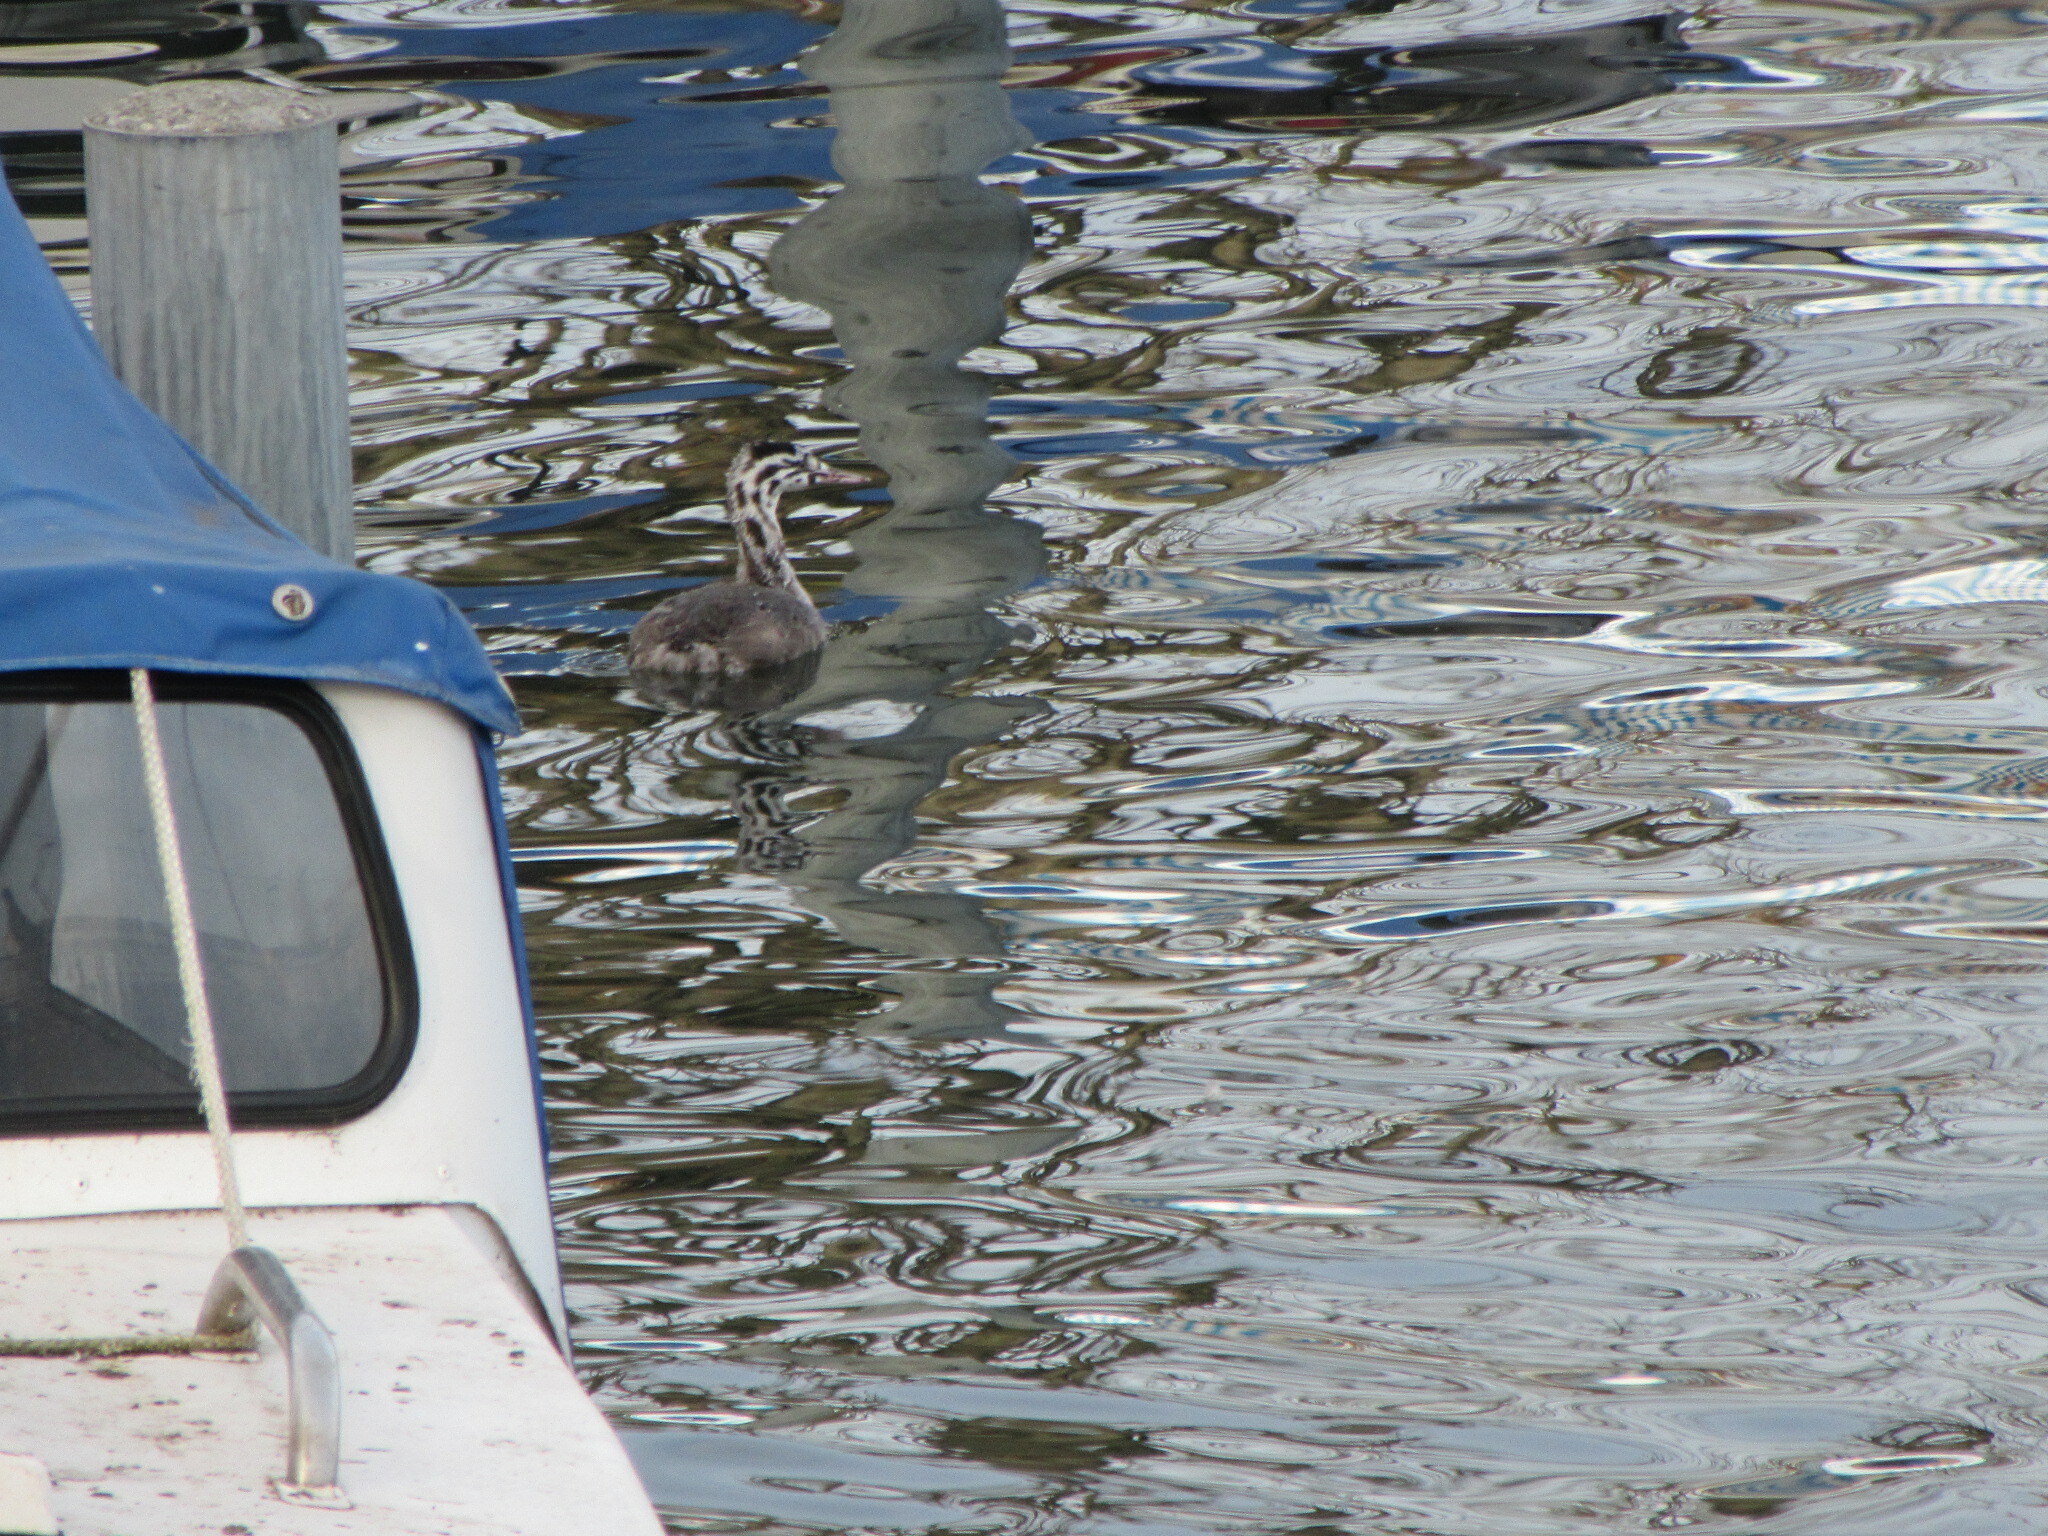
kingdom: Animalia
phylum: Chordata
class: Aves
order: Podicipediformes
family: Podicipedidae
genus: Podiceps
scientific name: Podiceps cristatus
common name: Great crested grebe
